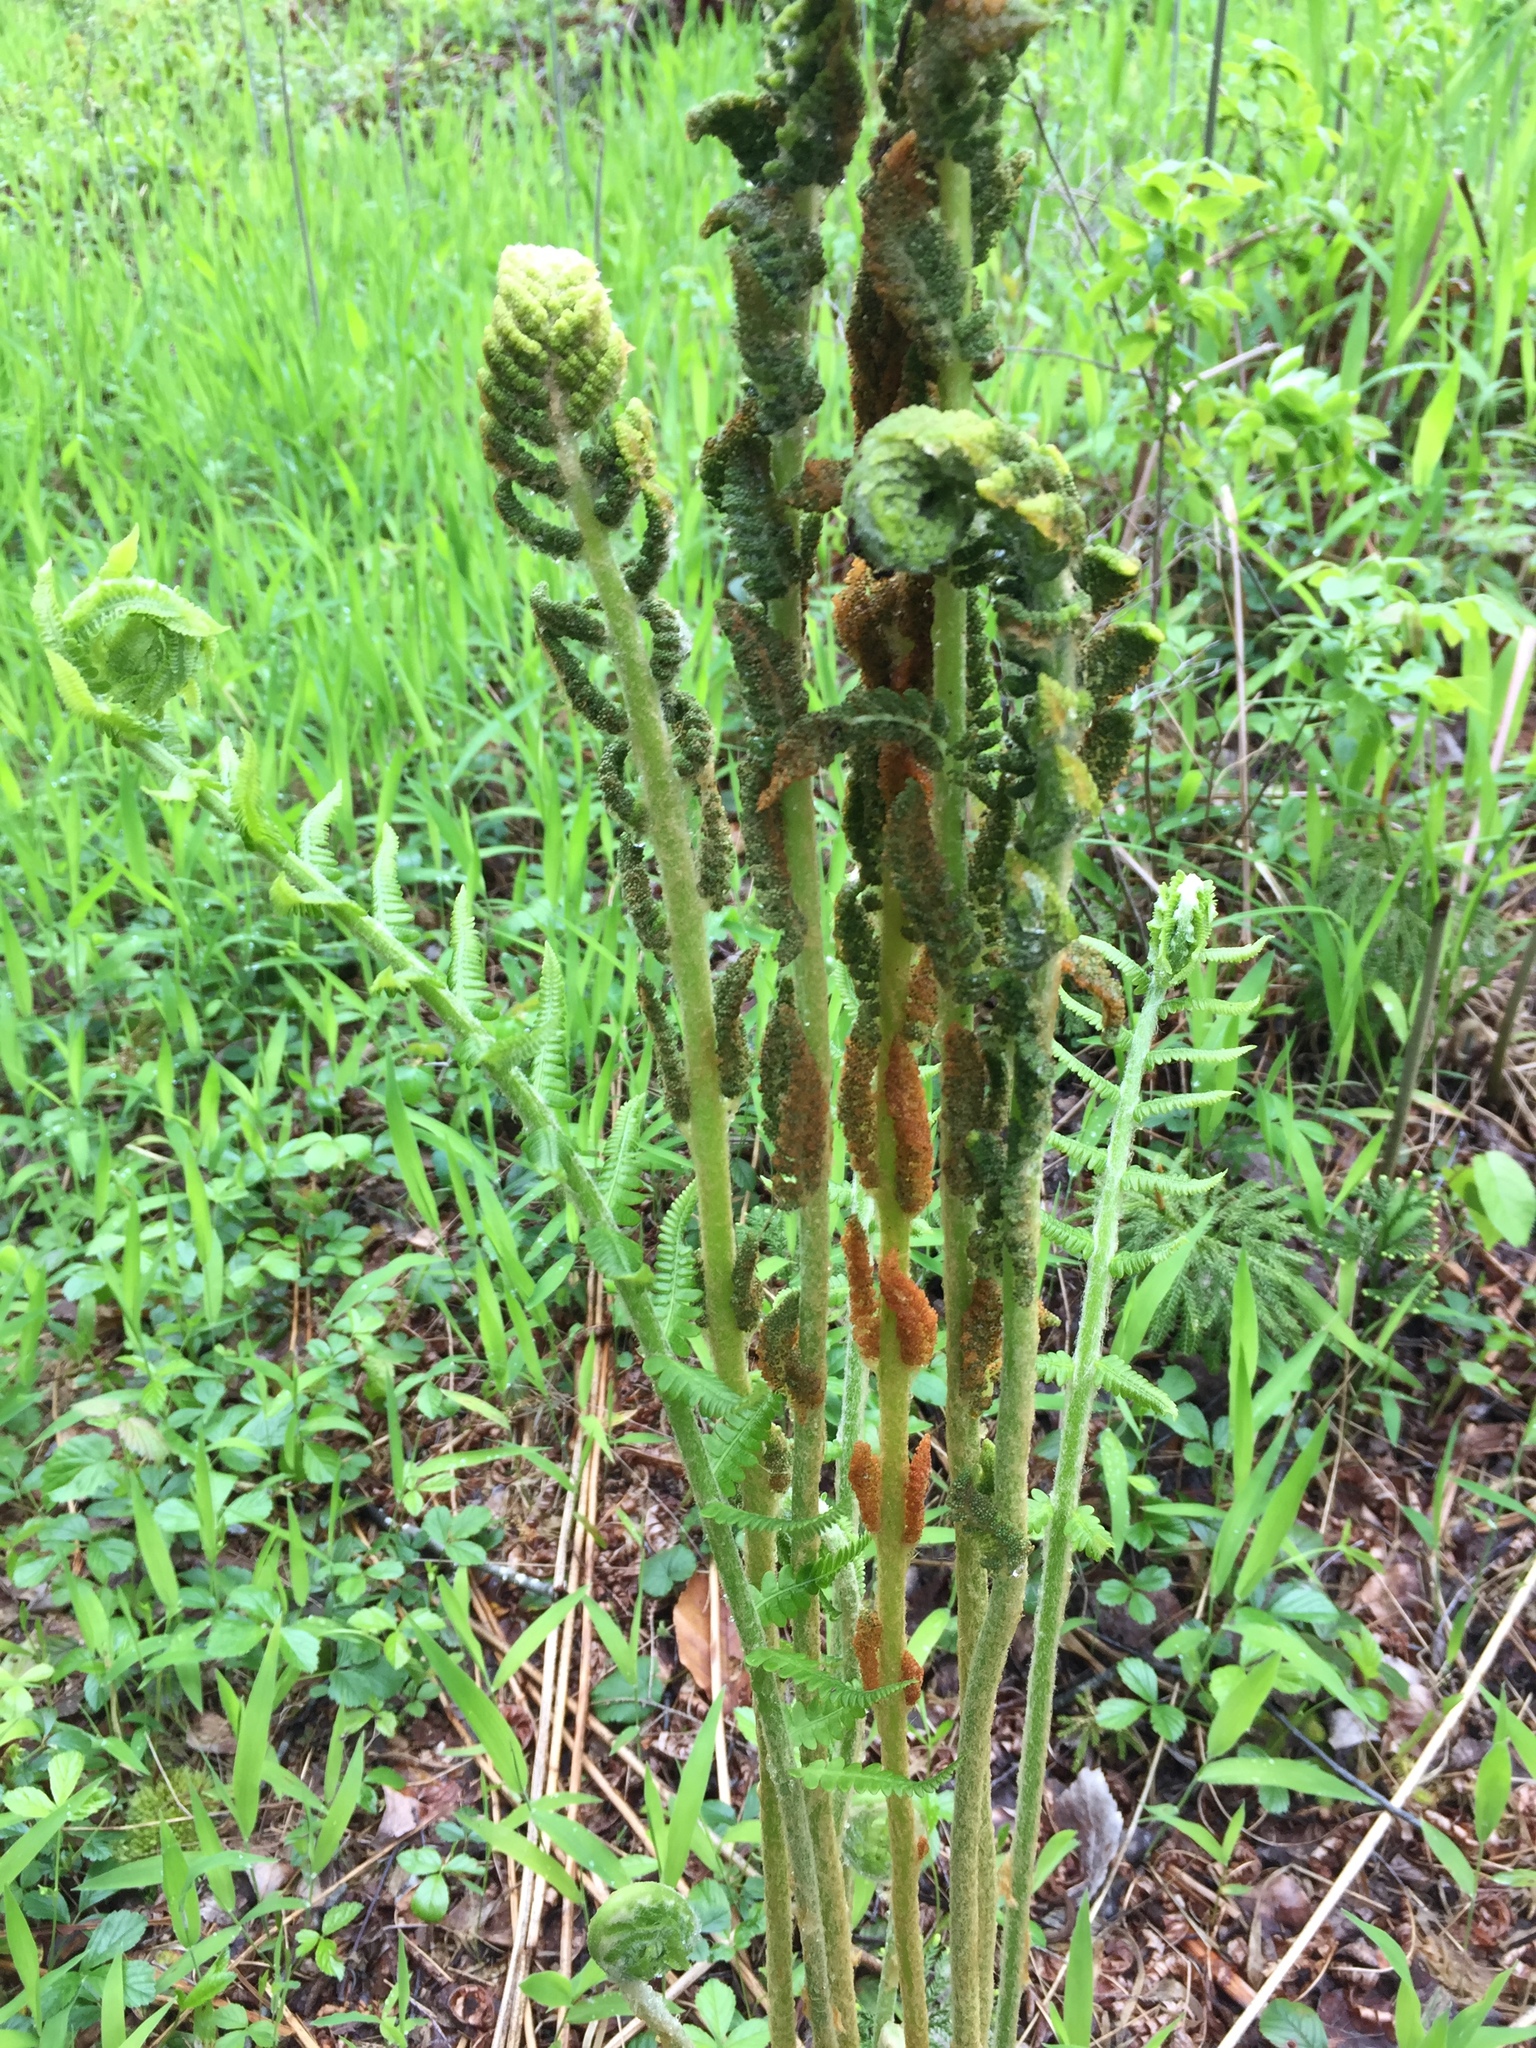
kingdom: Plantae
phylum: Tracheophyta
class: Polypodiopsida
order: Osmundales
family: Osmundaceae
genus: Osmundastrum
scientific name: Osmundastrum cinnamomeum
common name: Cinnamon fern
